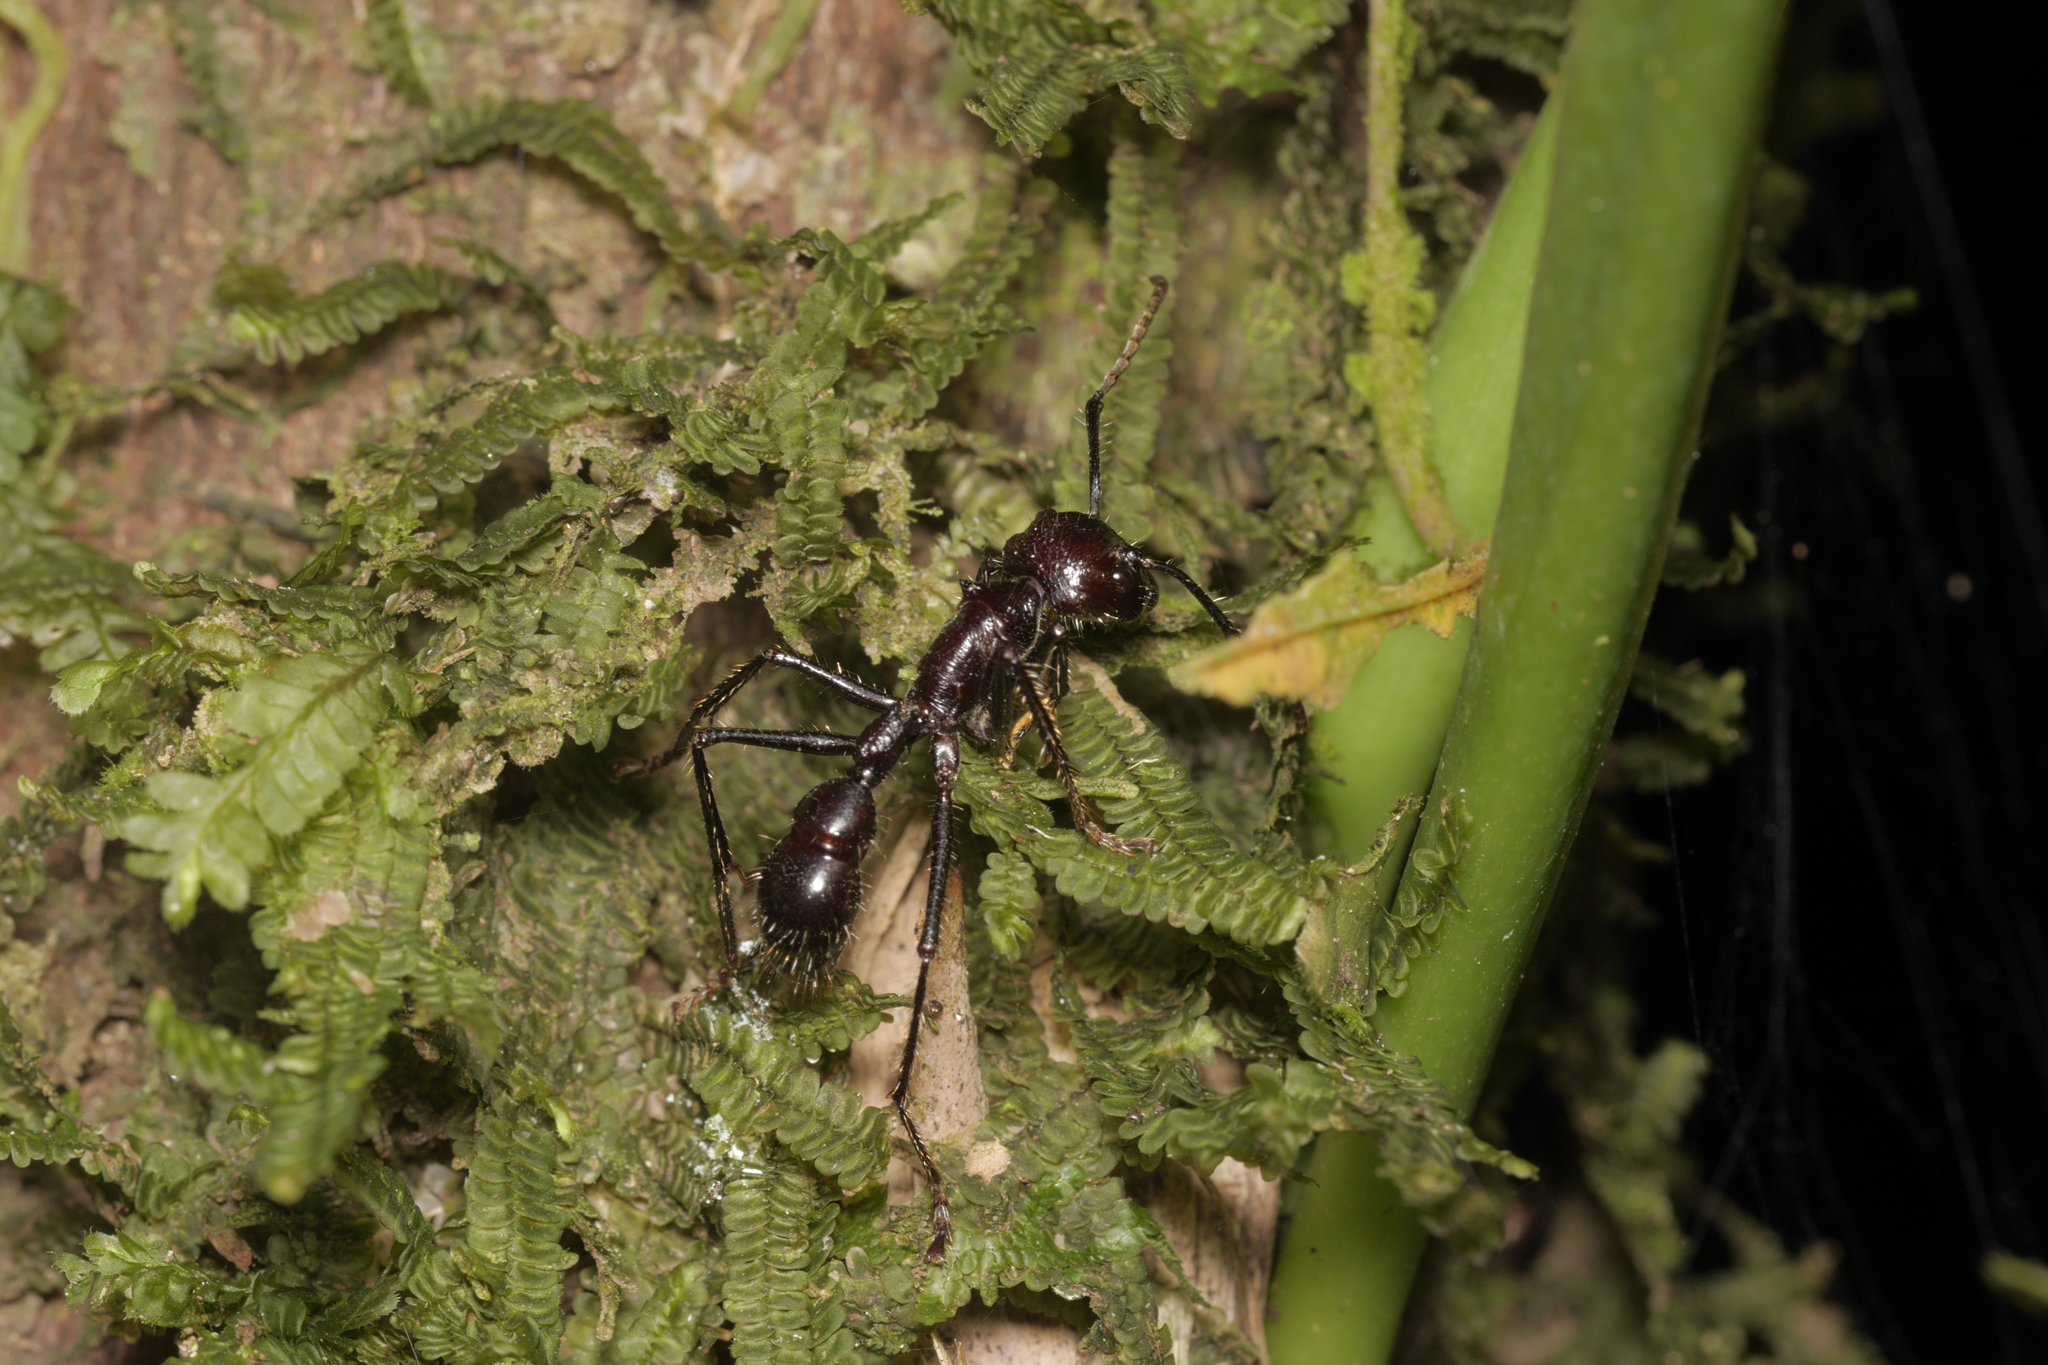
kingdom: Animalia
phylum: Arthropoda
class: Insecta
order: Hymenoptera
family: Formicidae
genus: Paraponera
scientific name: Paraponera clavata
